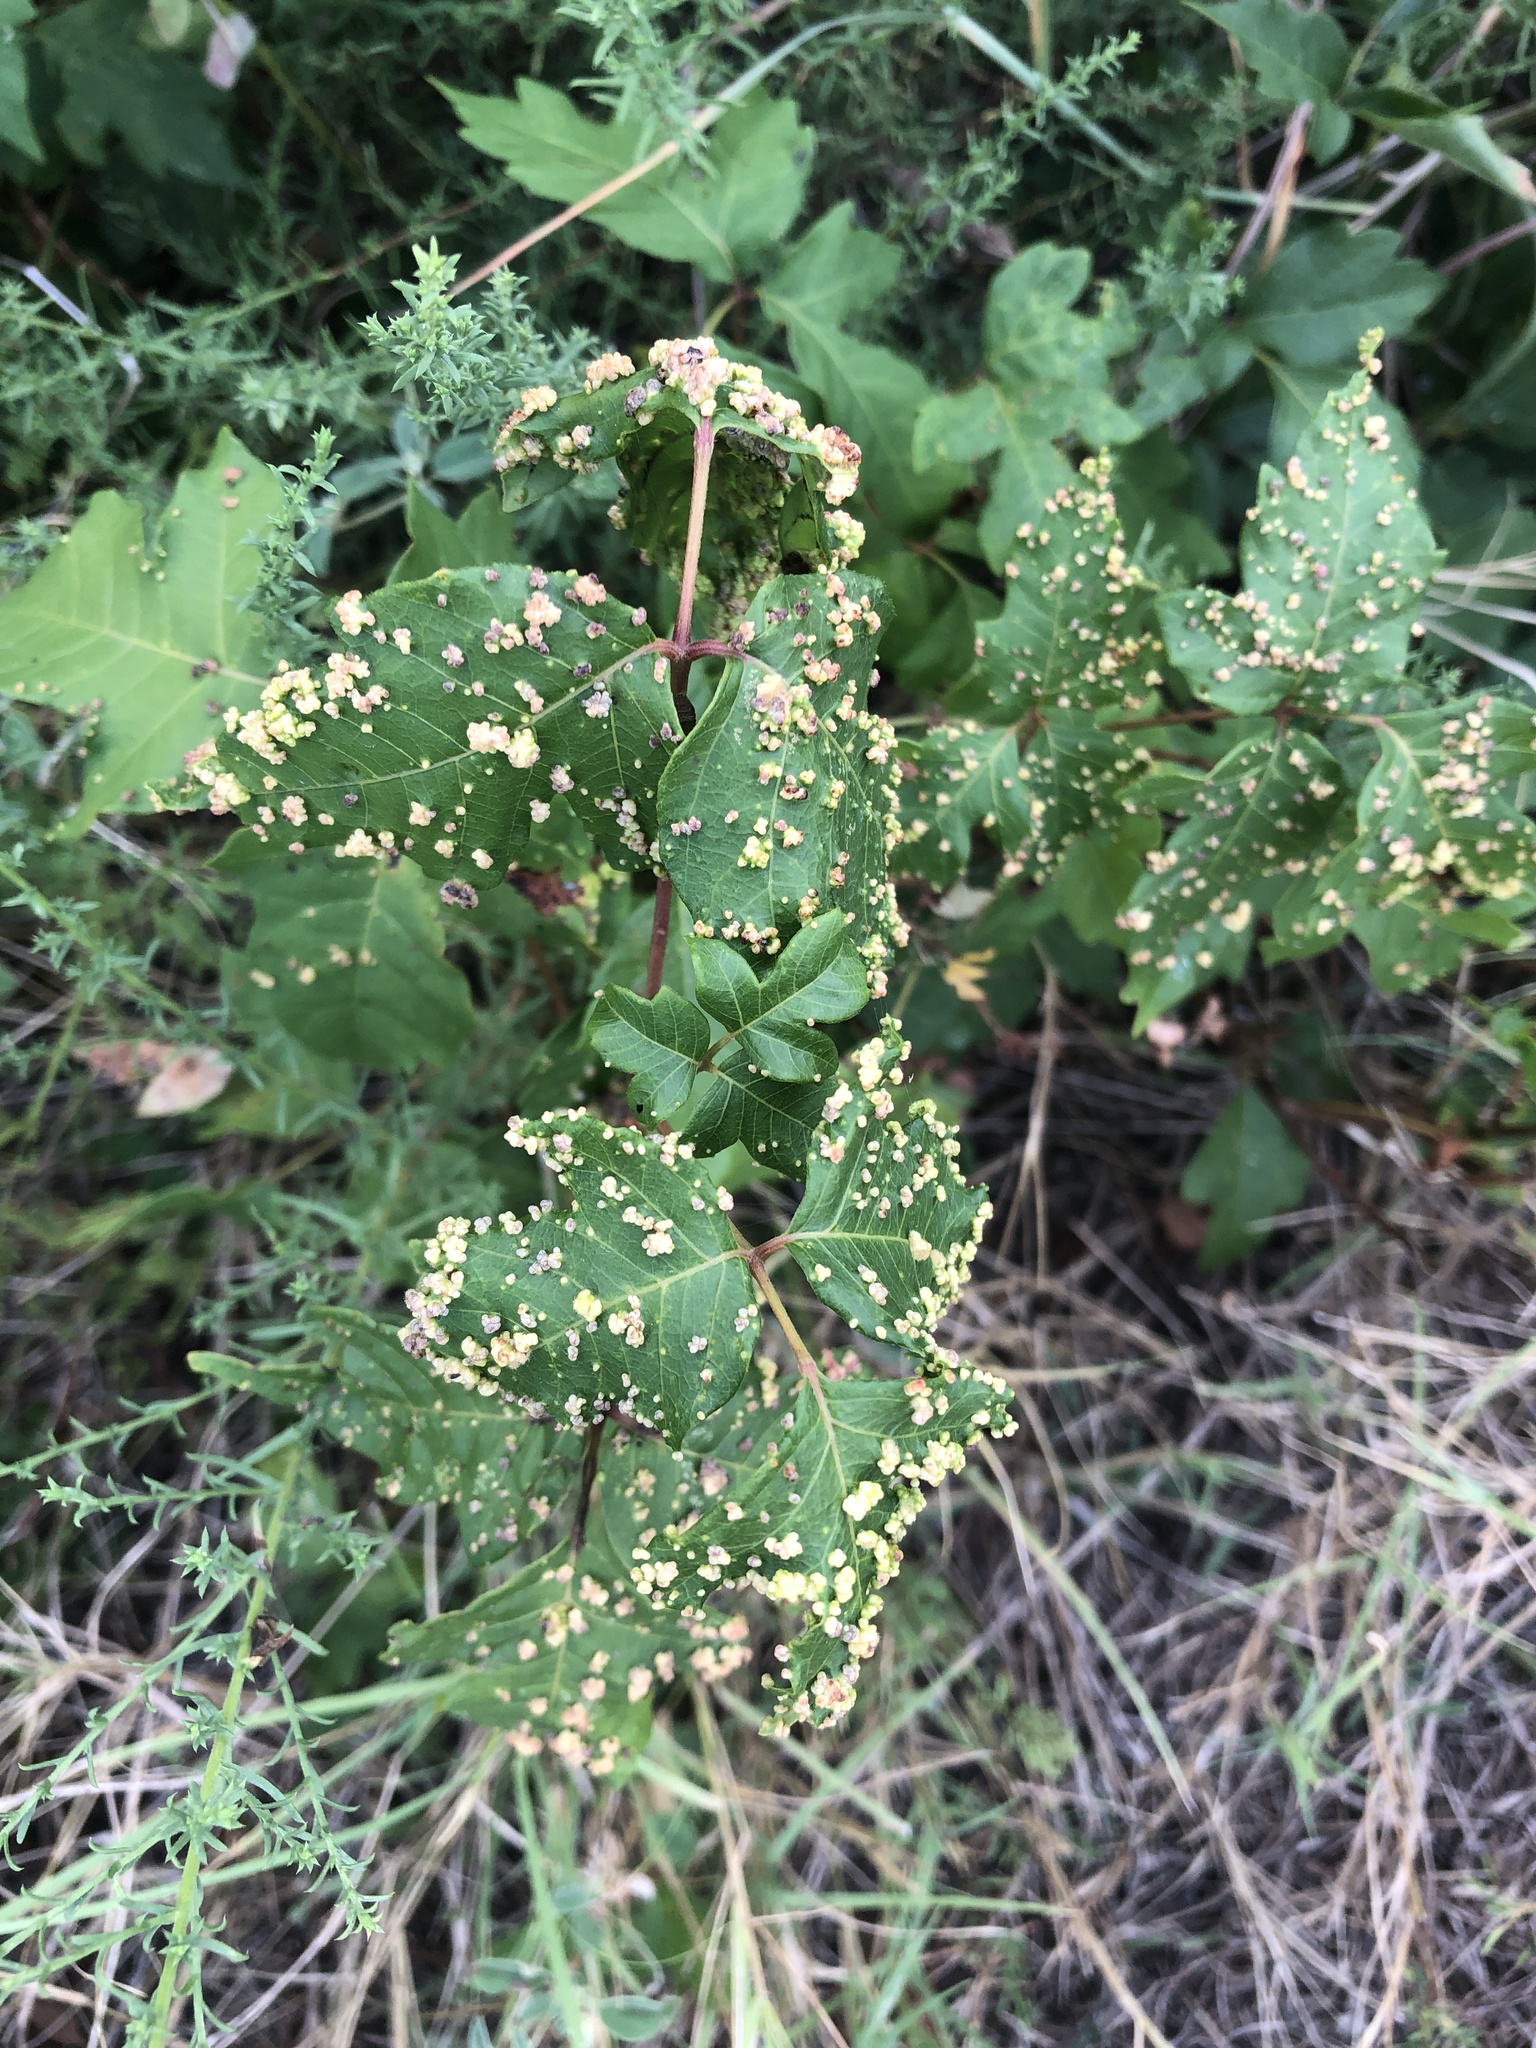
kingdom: Animalia
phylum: Arthropoda
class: Arachnida
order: Trombidiformes
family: Eriophyidae
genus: Aculops
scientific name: Aculops
